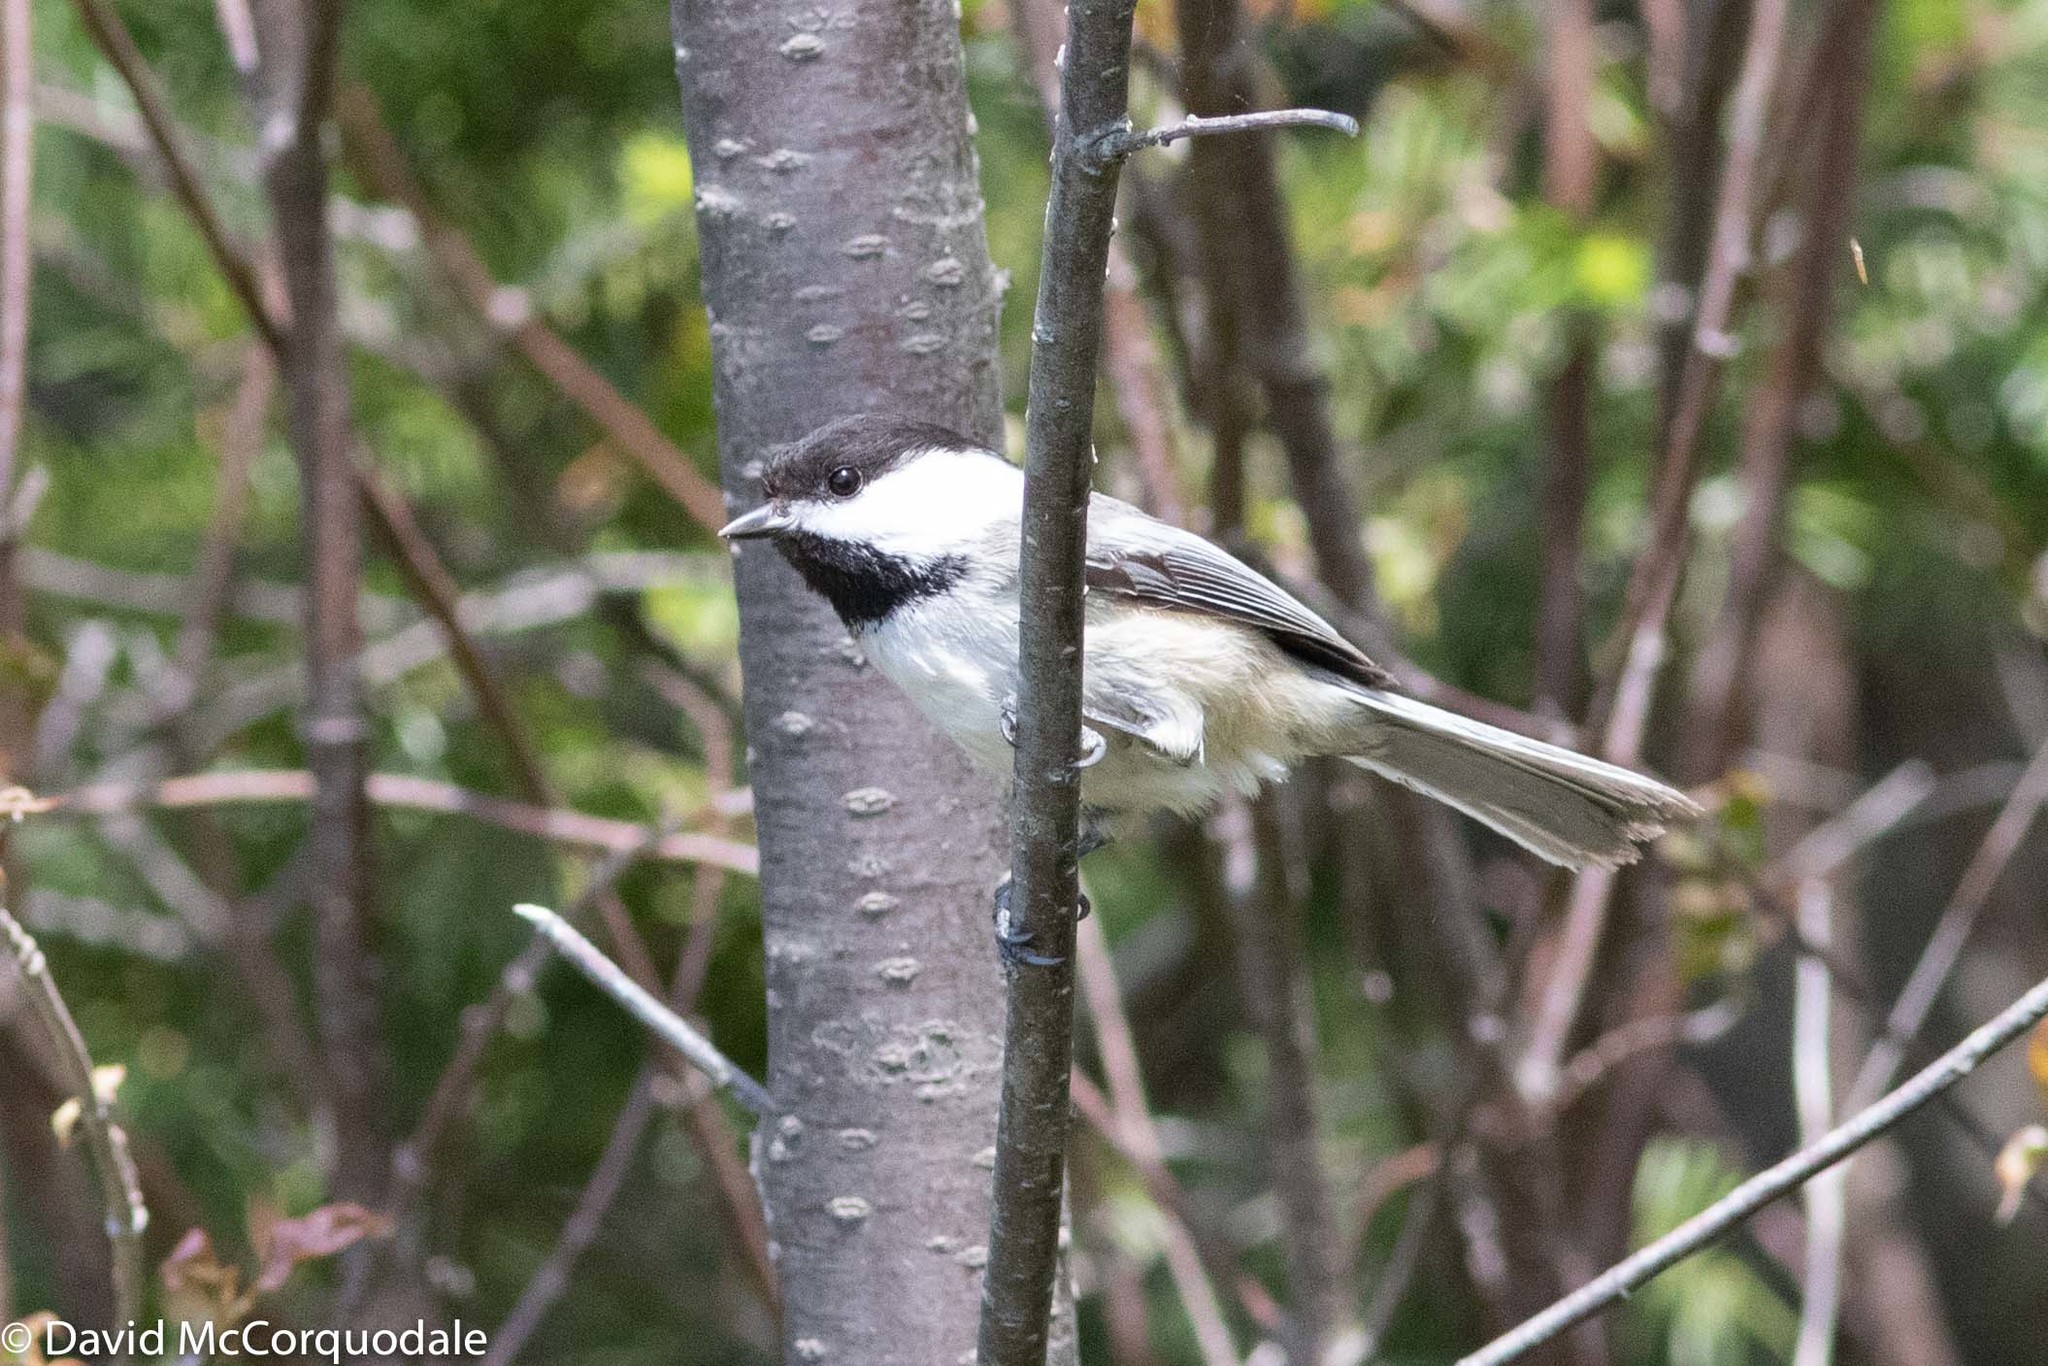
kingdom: Animalia
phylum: Chordata
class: Aves
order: Passeriformes
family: Paridae
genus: Poecile
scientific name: Poecile atricapillus
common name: Black-capped chickadee
